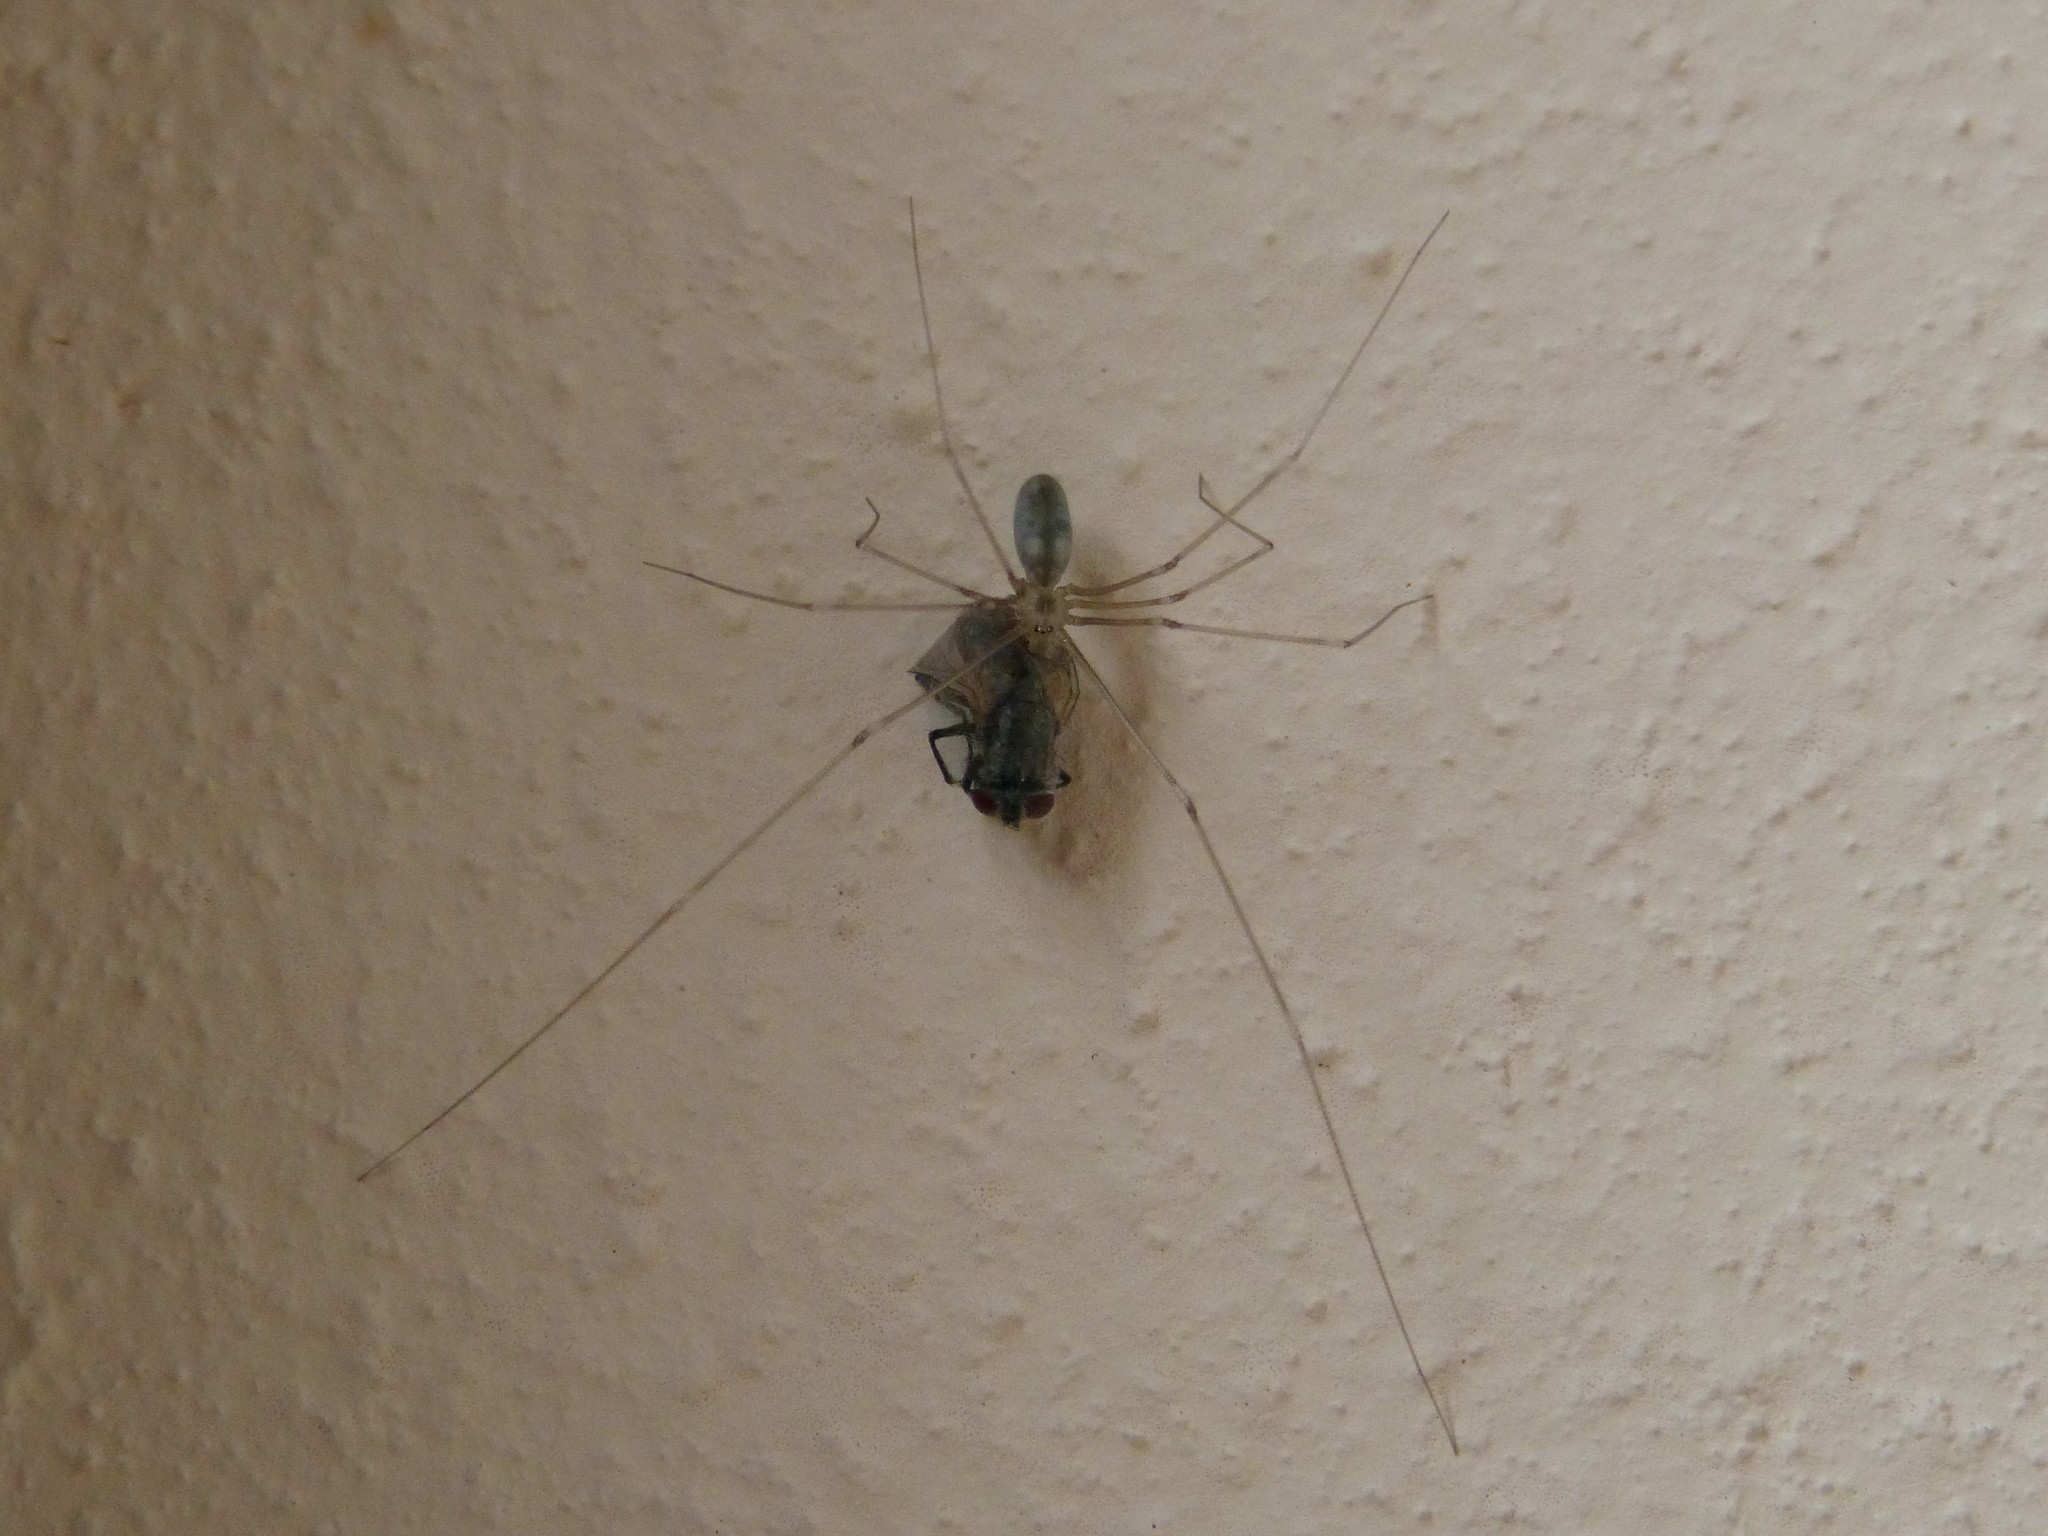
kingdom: Animalia
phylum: Arthropoda
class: Arachnida
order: Araneae
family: Pholcidae
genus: Pholcus
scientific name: Pholcus phalangioides
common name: Longbodied cellar spider
